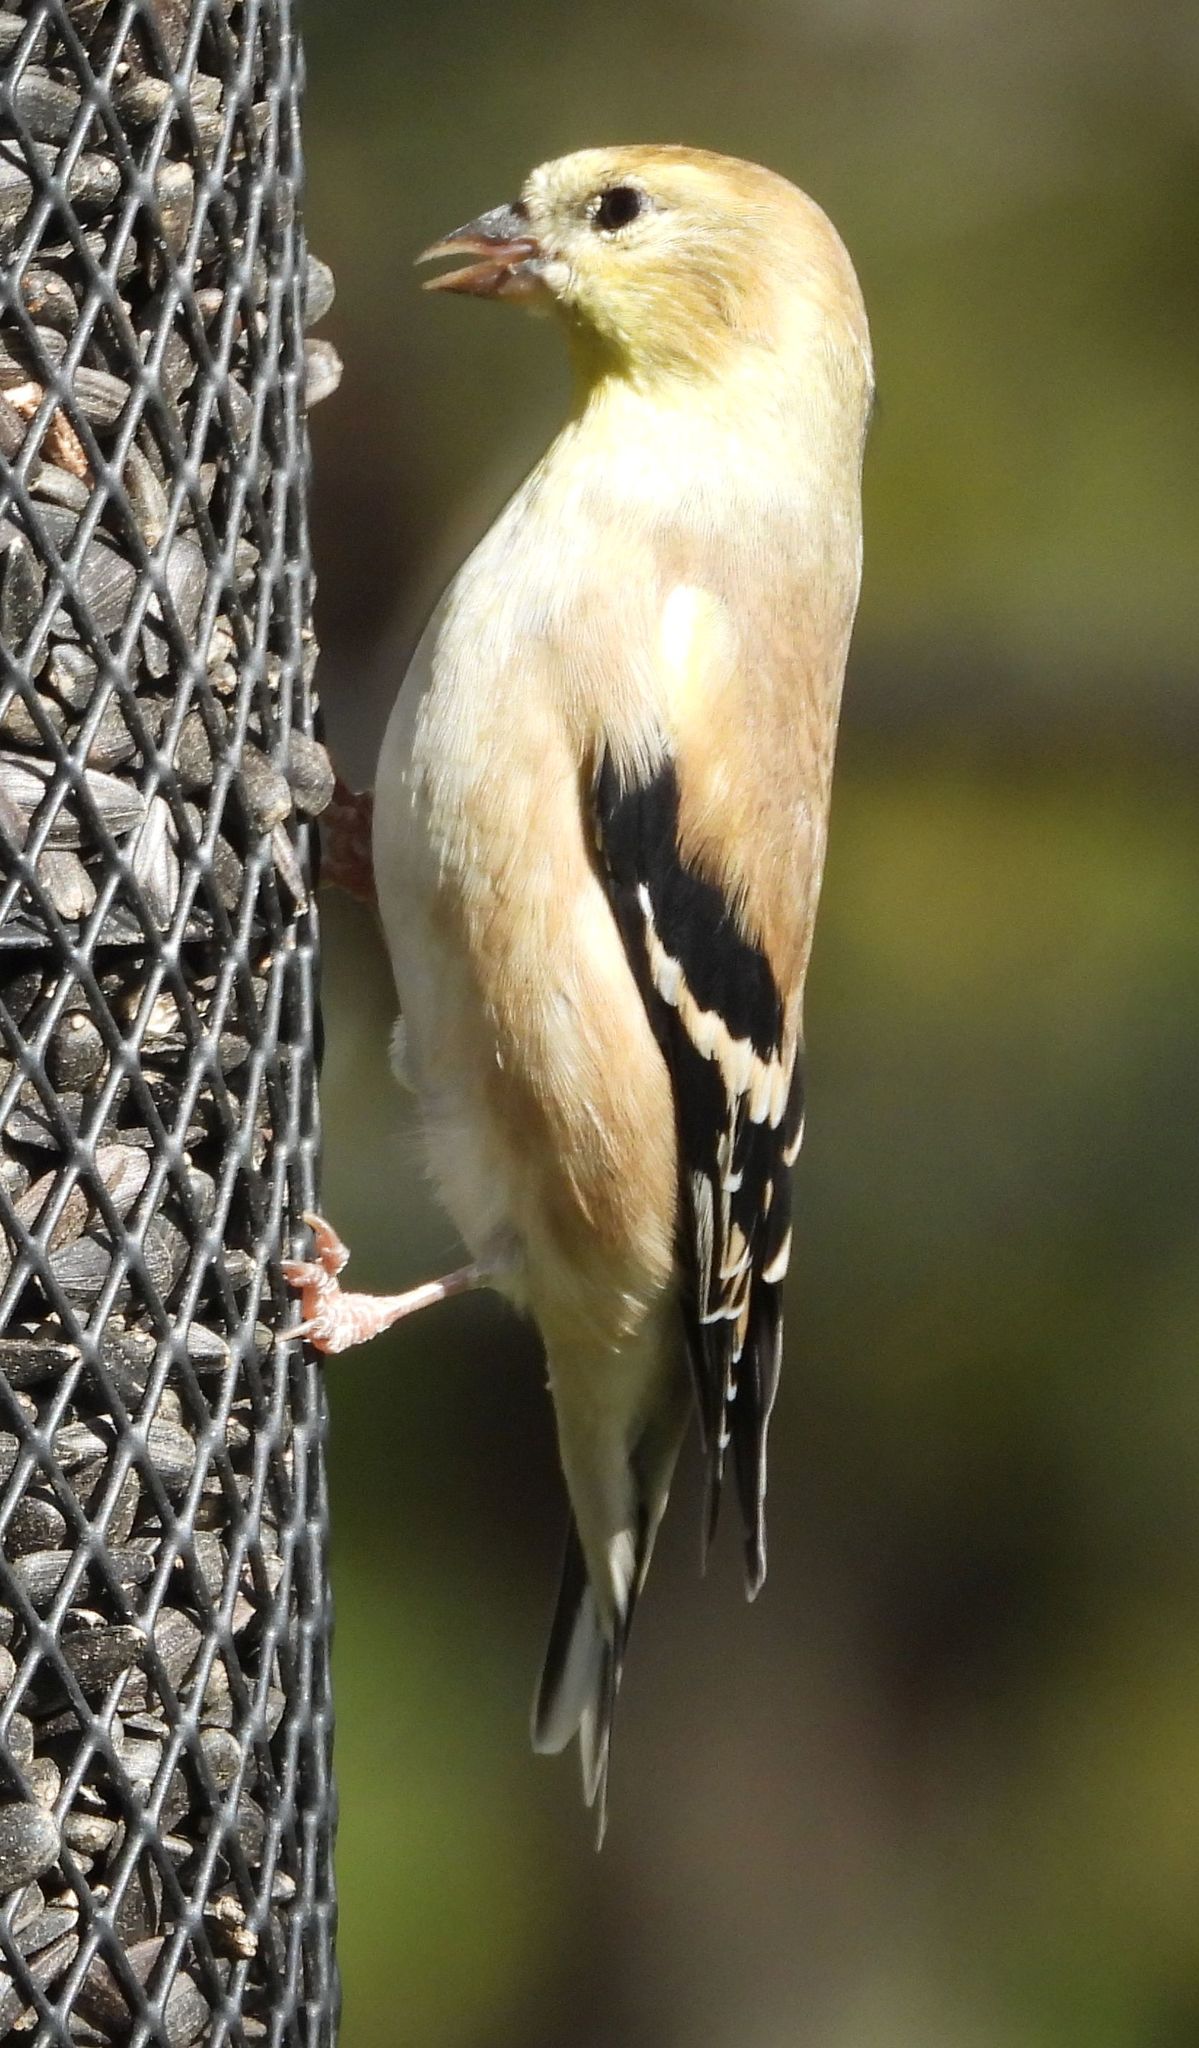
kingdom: Animalia
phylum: Chordata
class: Aves
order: Passeriformes
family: Fringillidae
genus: Spinus
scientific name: Spinus tristis
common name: American goldfinch
